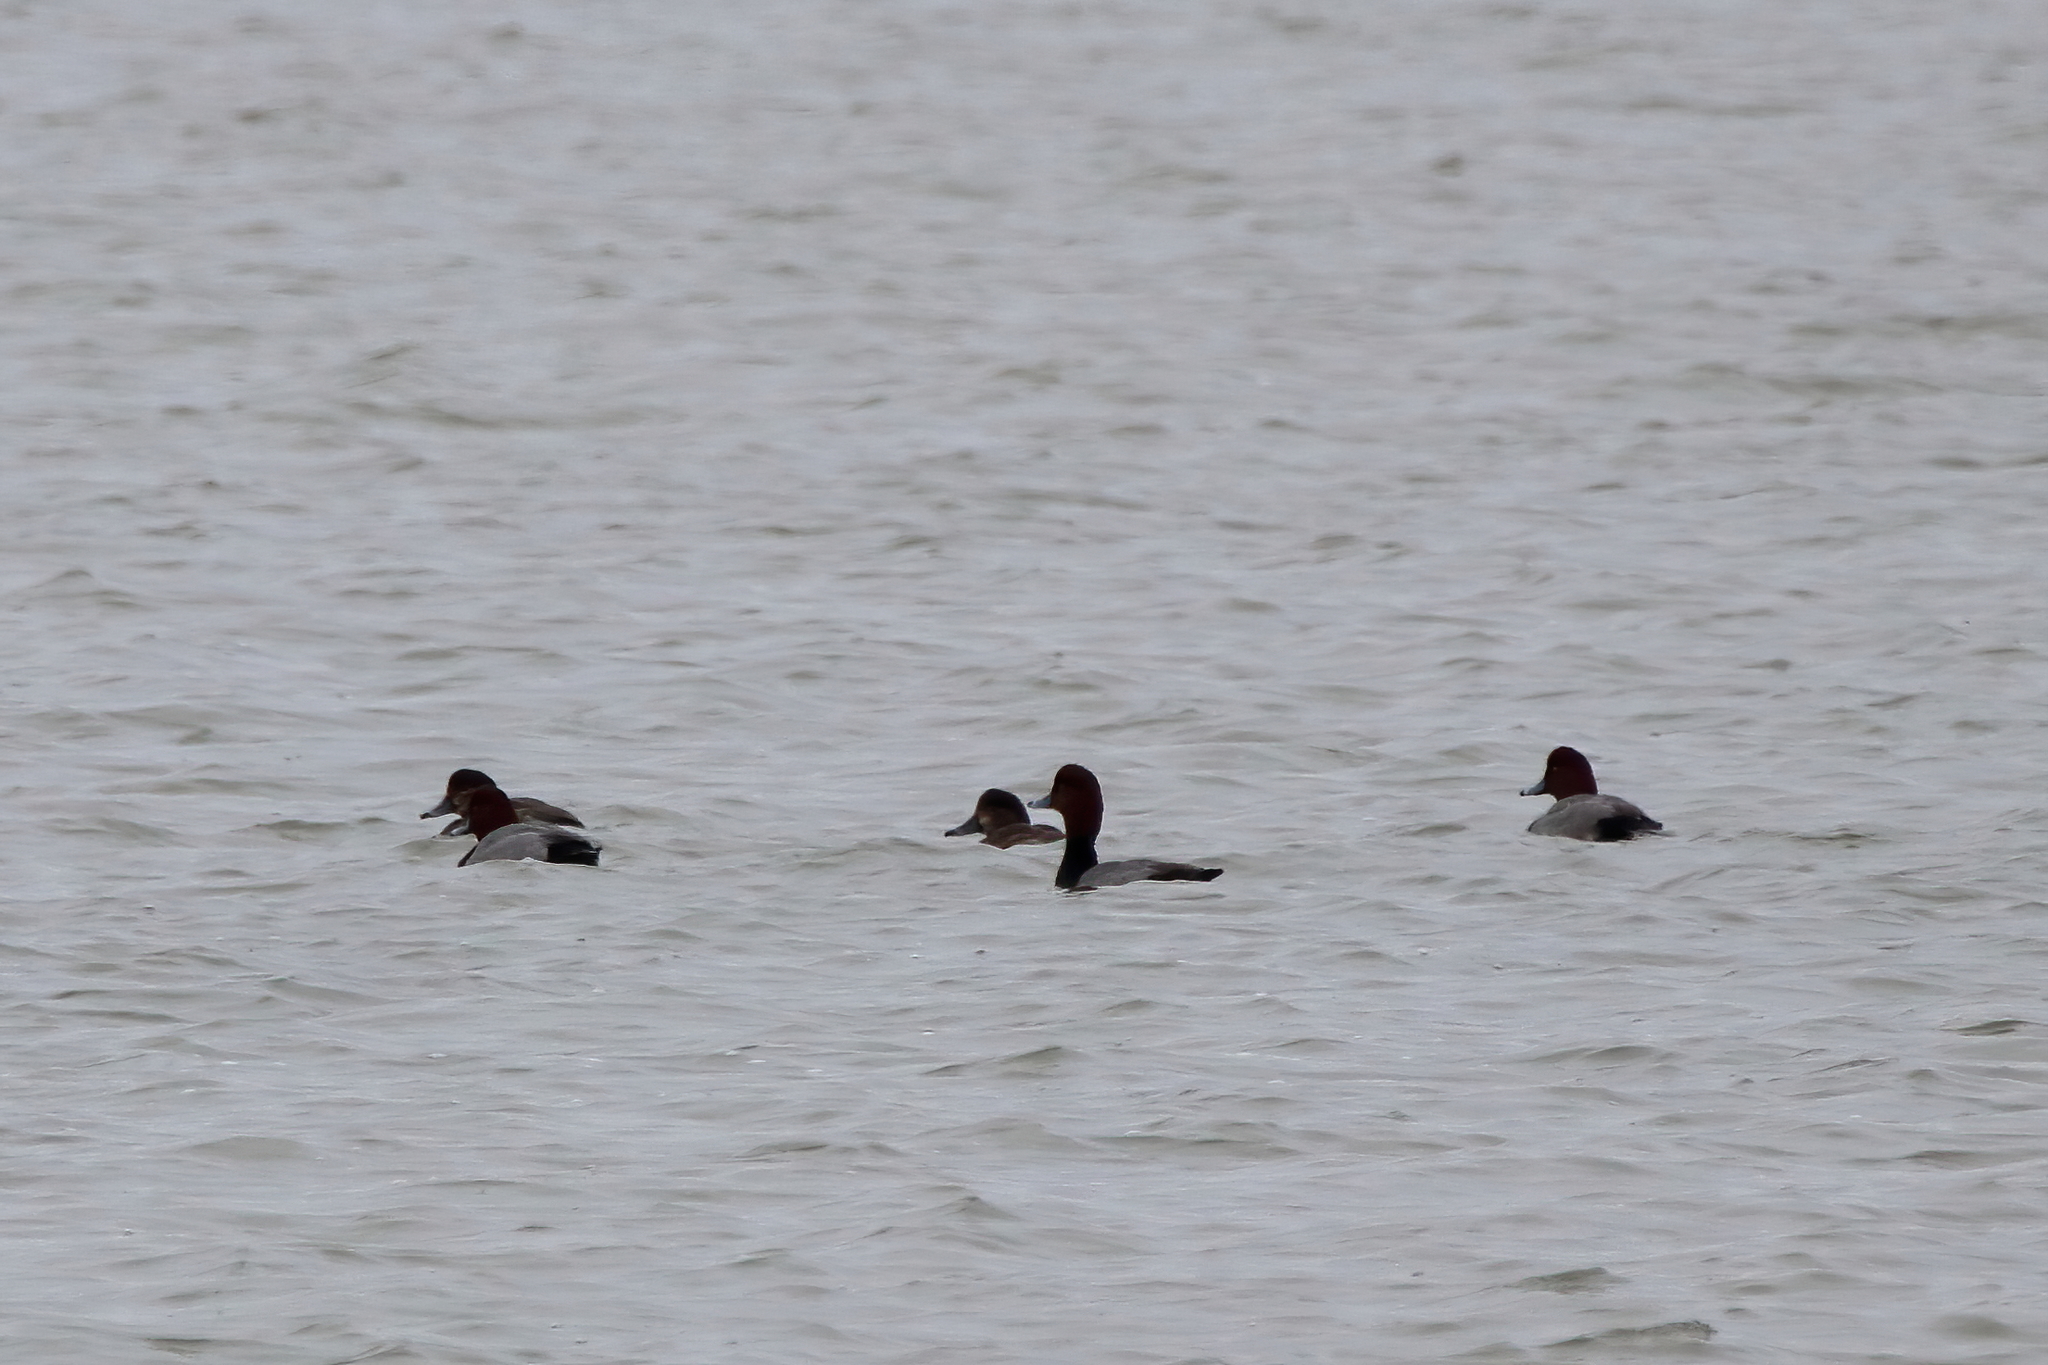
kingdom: Animalia
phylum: Chordata
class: Aves
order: Anseriformes
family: Anatidae
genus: Aythya
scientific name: Aythya americana
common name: Redhead
